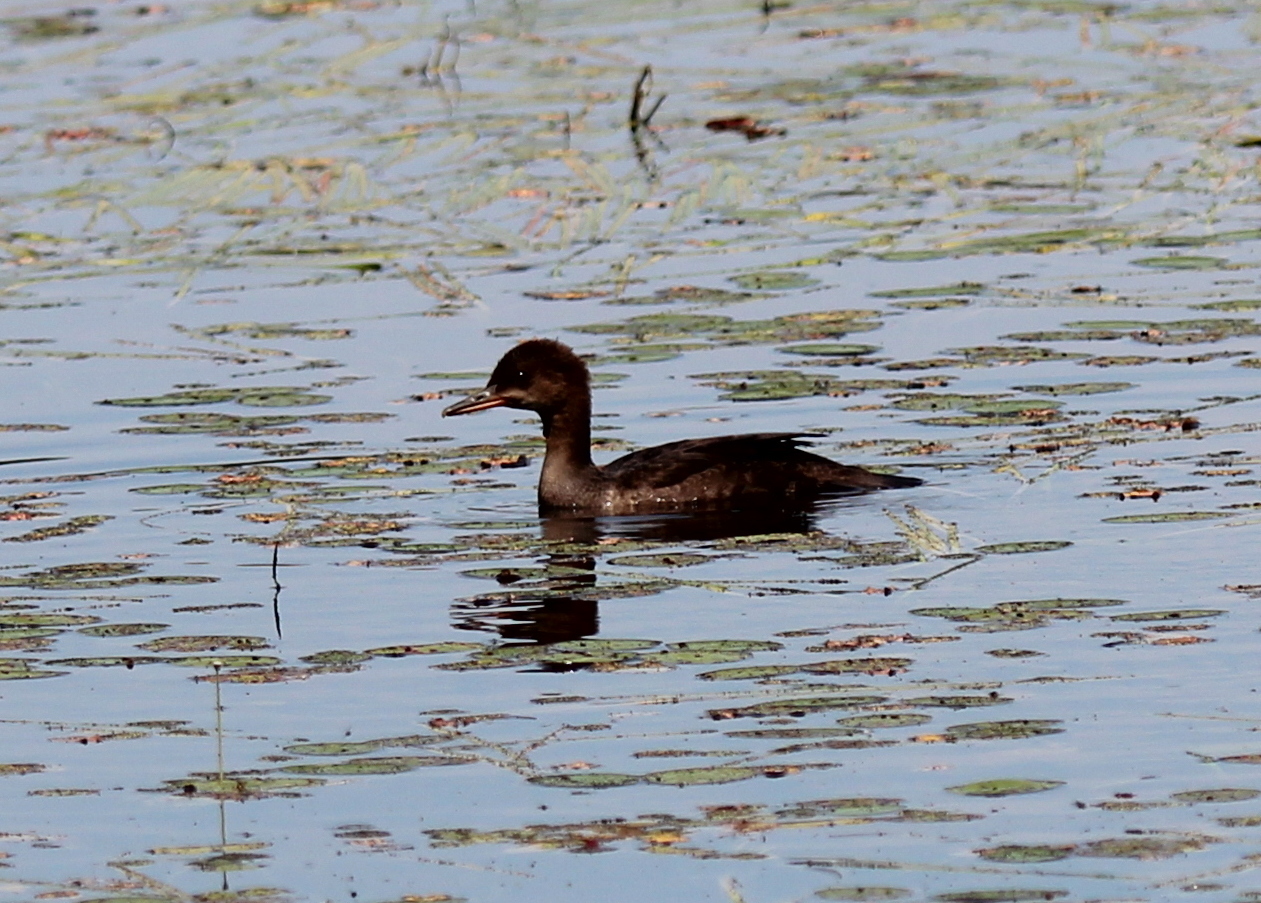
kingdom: Animalia
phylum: Chordata
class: Aves
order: Anseriformes
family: Anatidae
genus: Lophodytes
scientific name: Lophodytes cucullatus
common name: Hooded merganser
